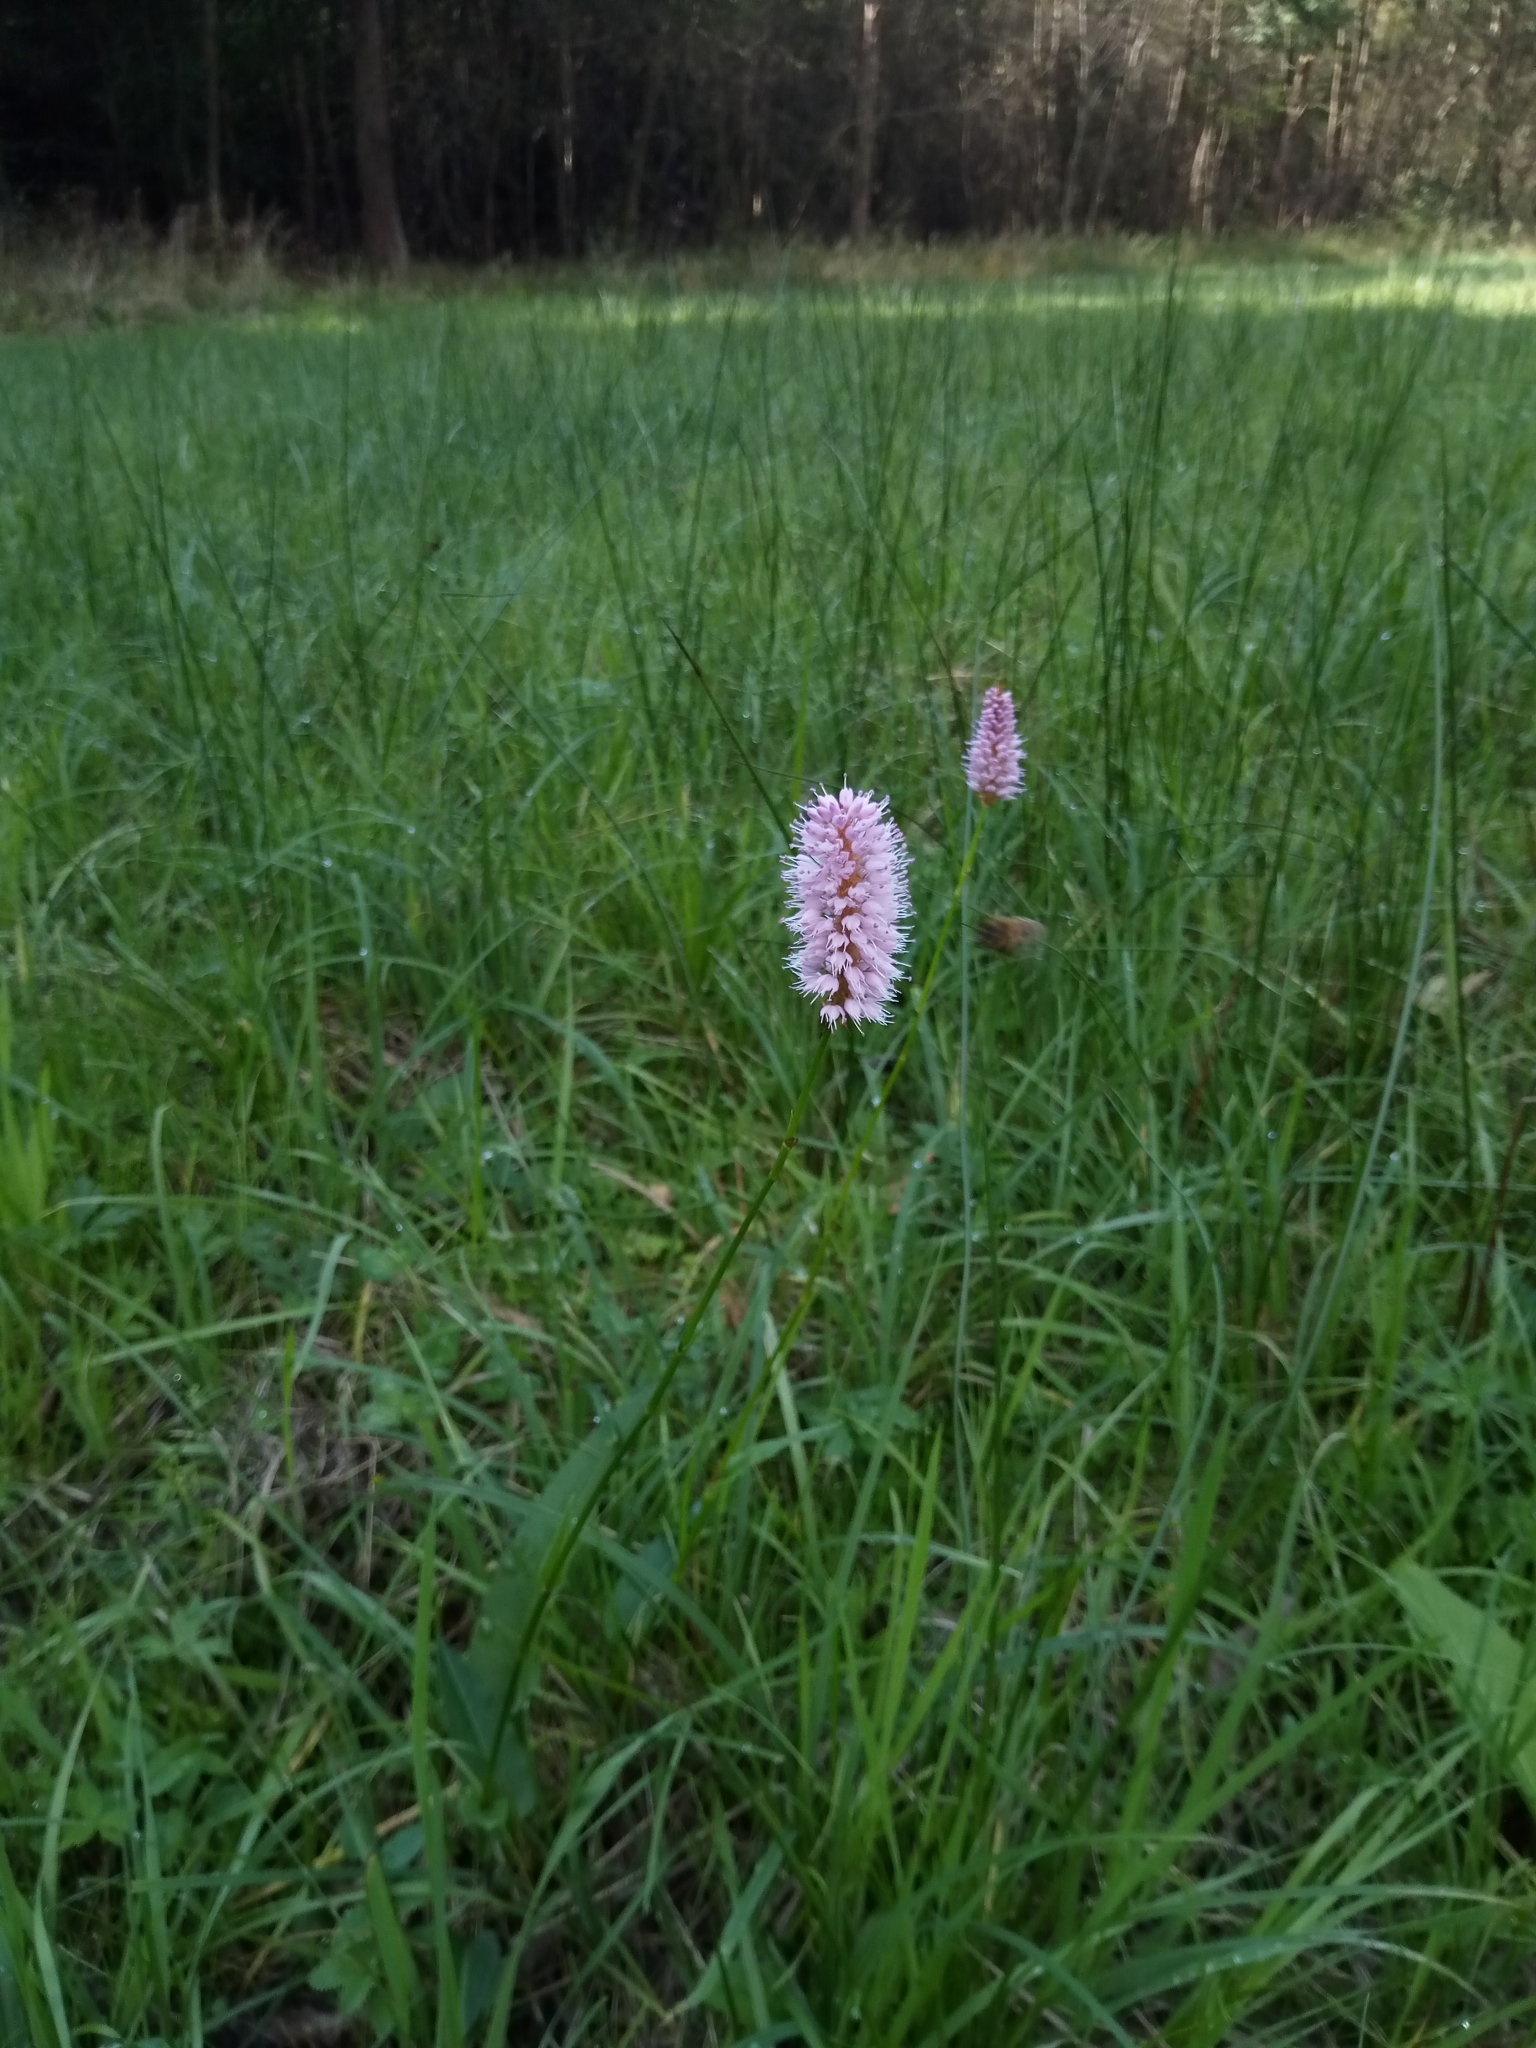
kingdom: Plantae
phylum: Tracheophyta
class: Magnoliopsida
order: Caryophyllales
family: Polygonaceae
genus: Bistorta
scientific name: Bistorta officinalis
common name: Common bistort
